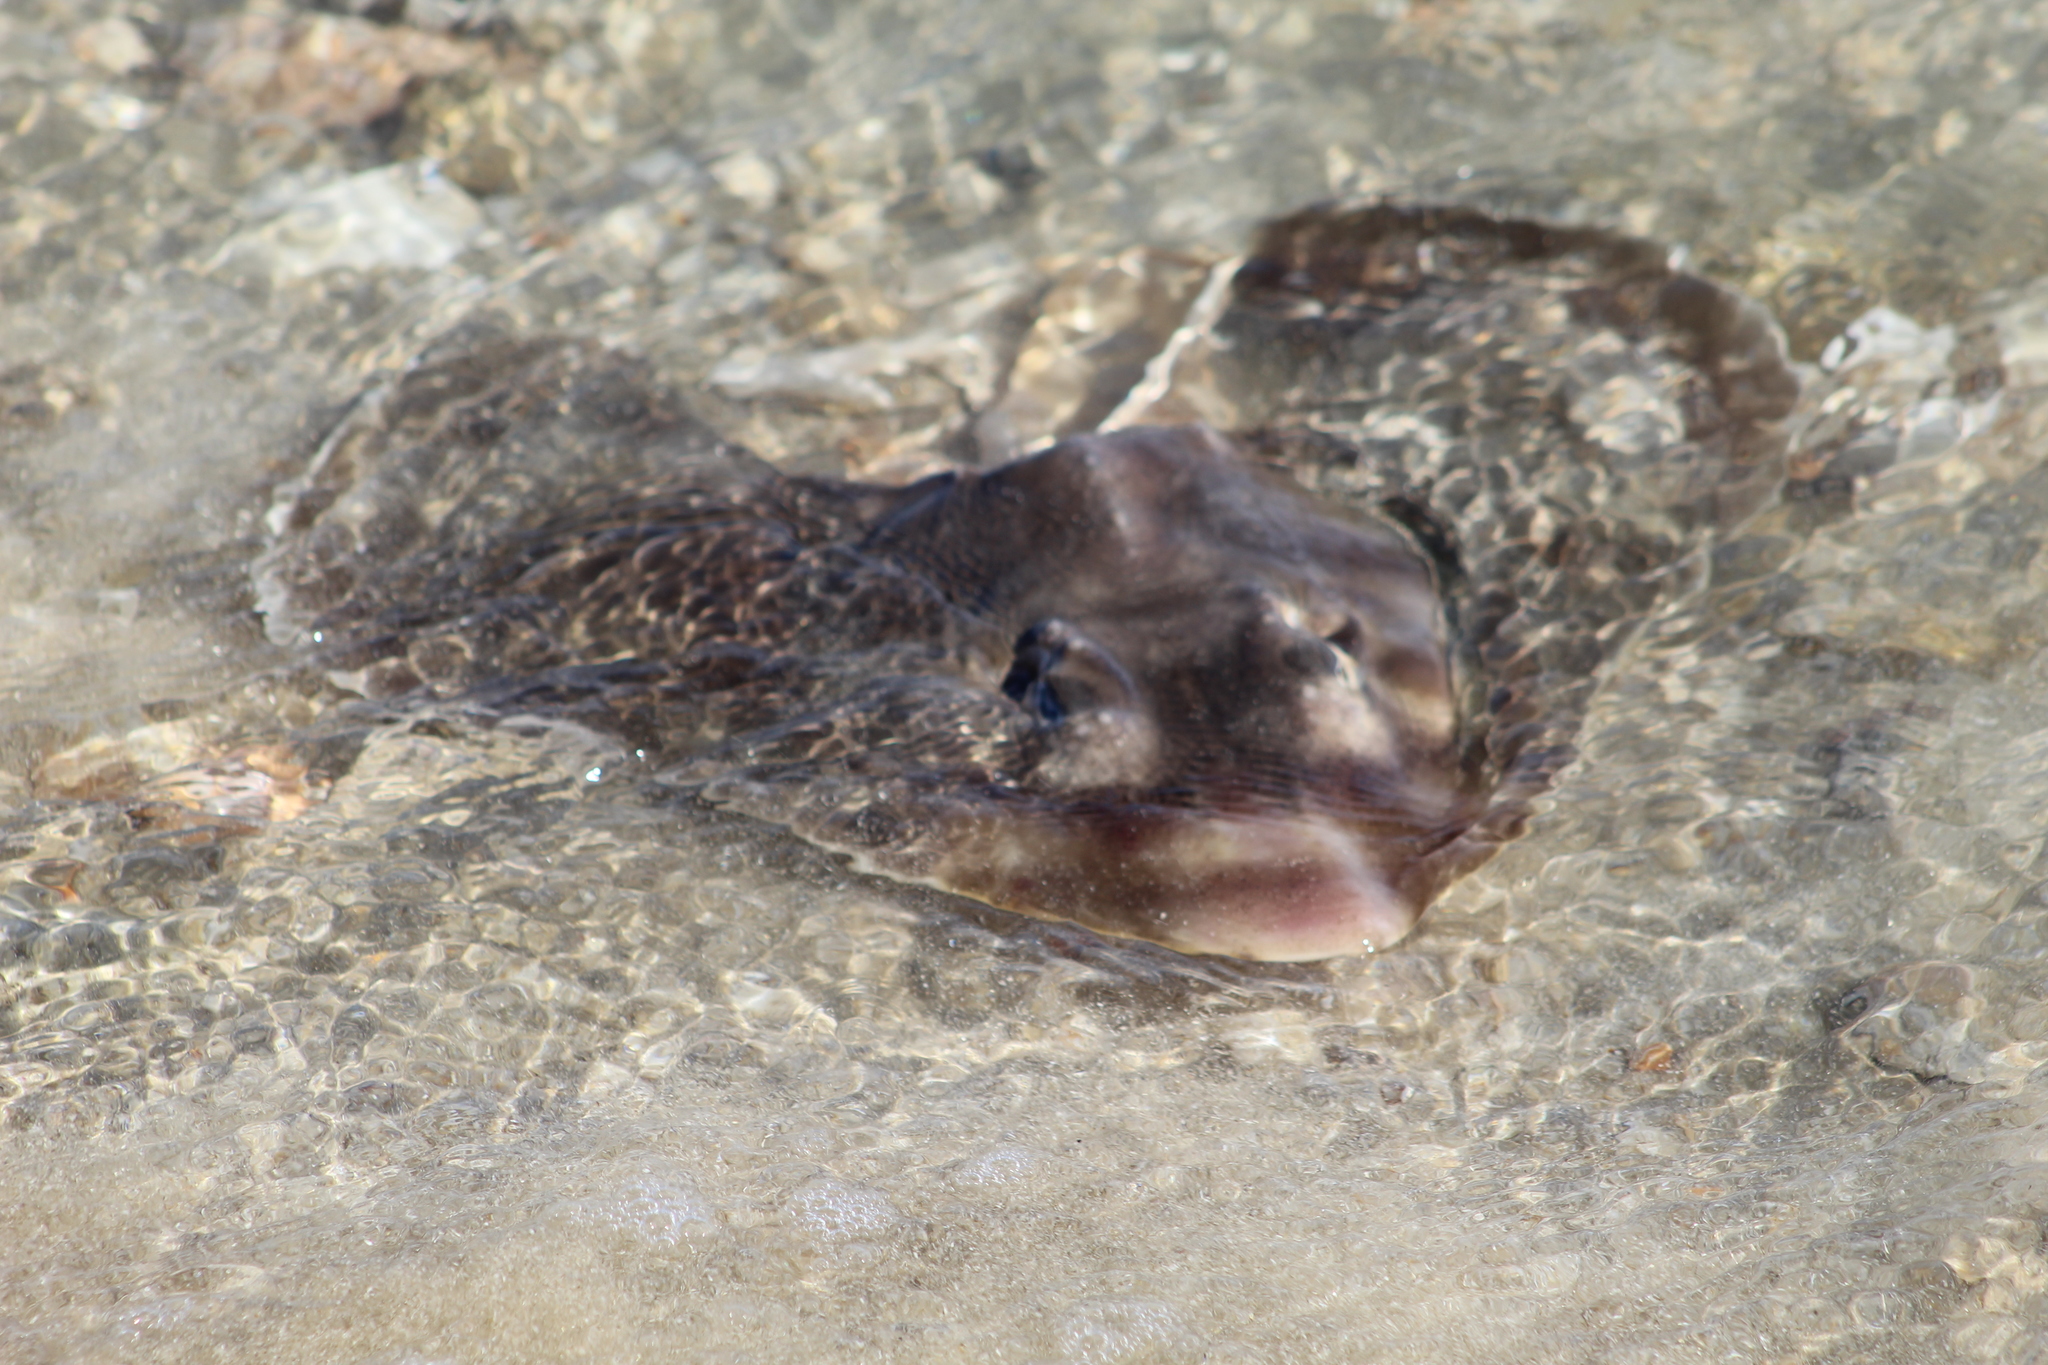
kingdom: Animalia
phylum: Chordata
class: Elasmobranchii
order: Rhinopristiformes
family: Rhinobatidae
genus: Zapteryx
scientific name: Zapteryx exasperata
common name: Banded guitarfish
